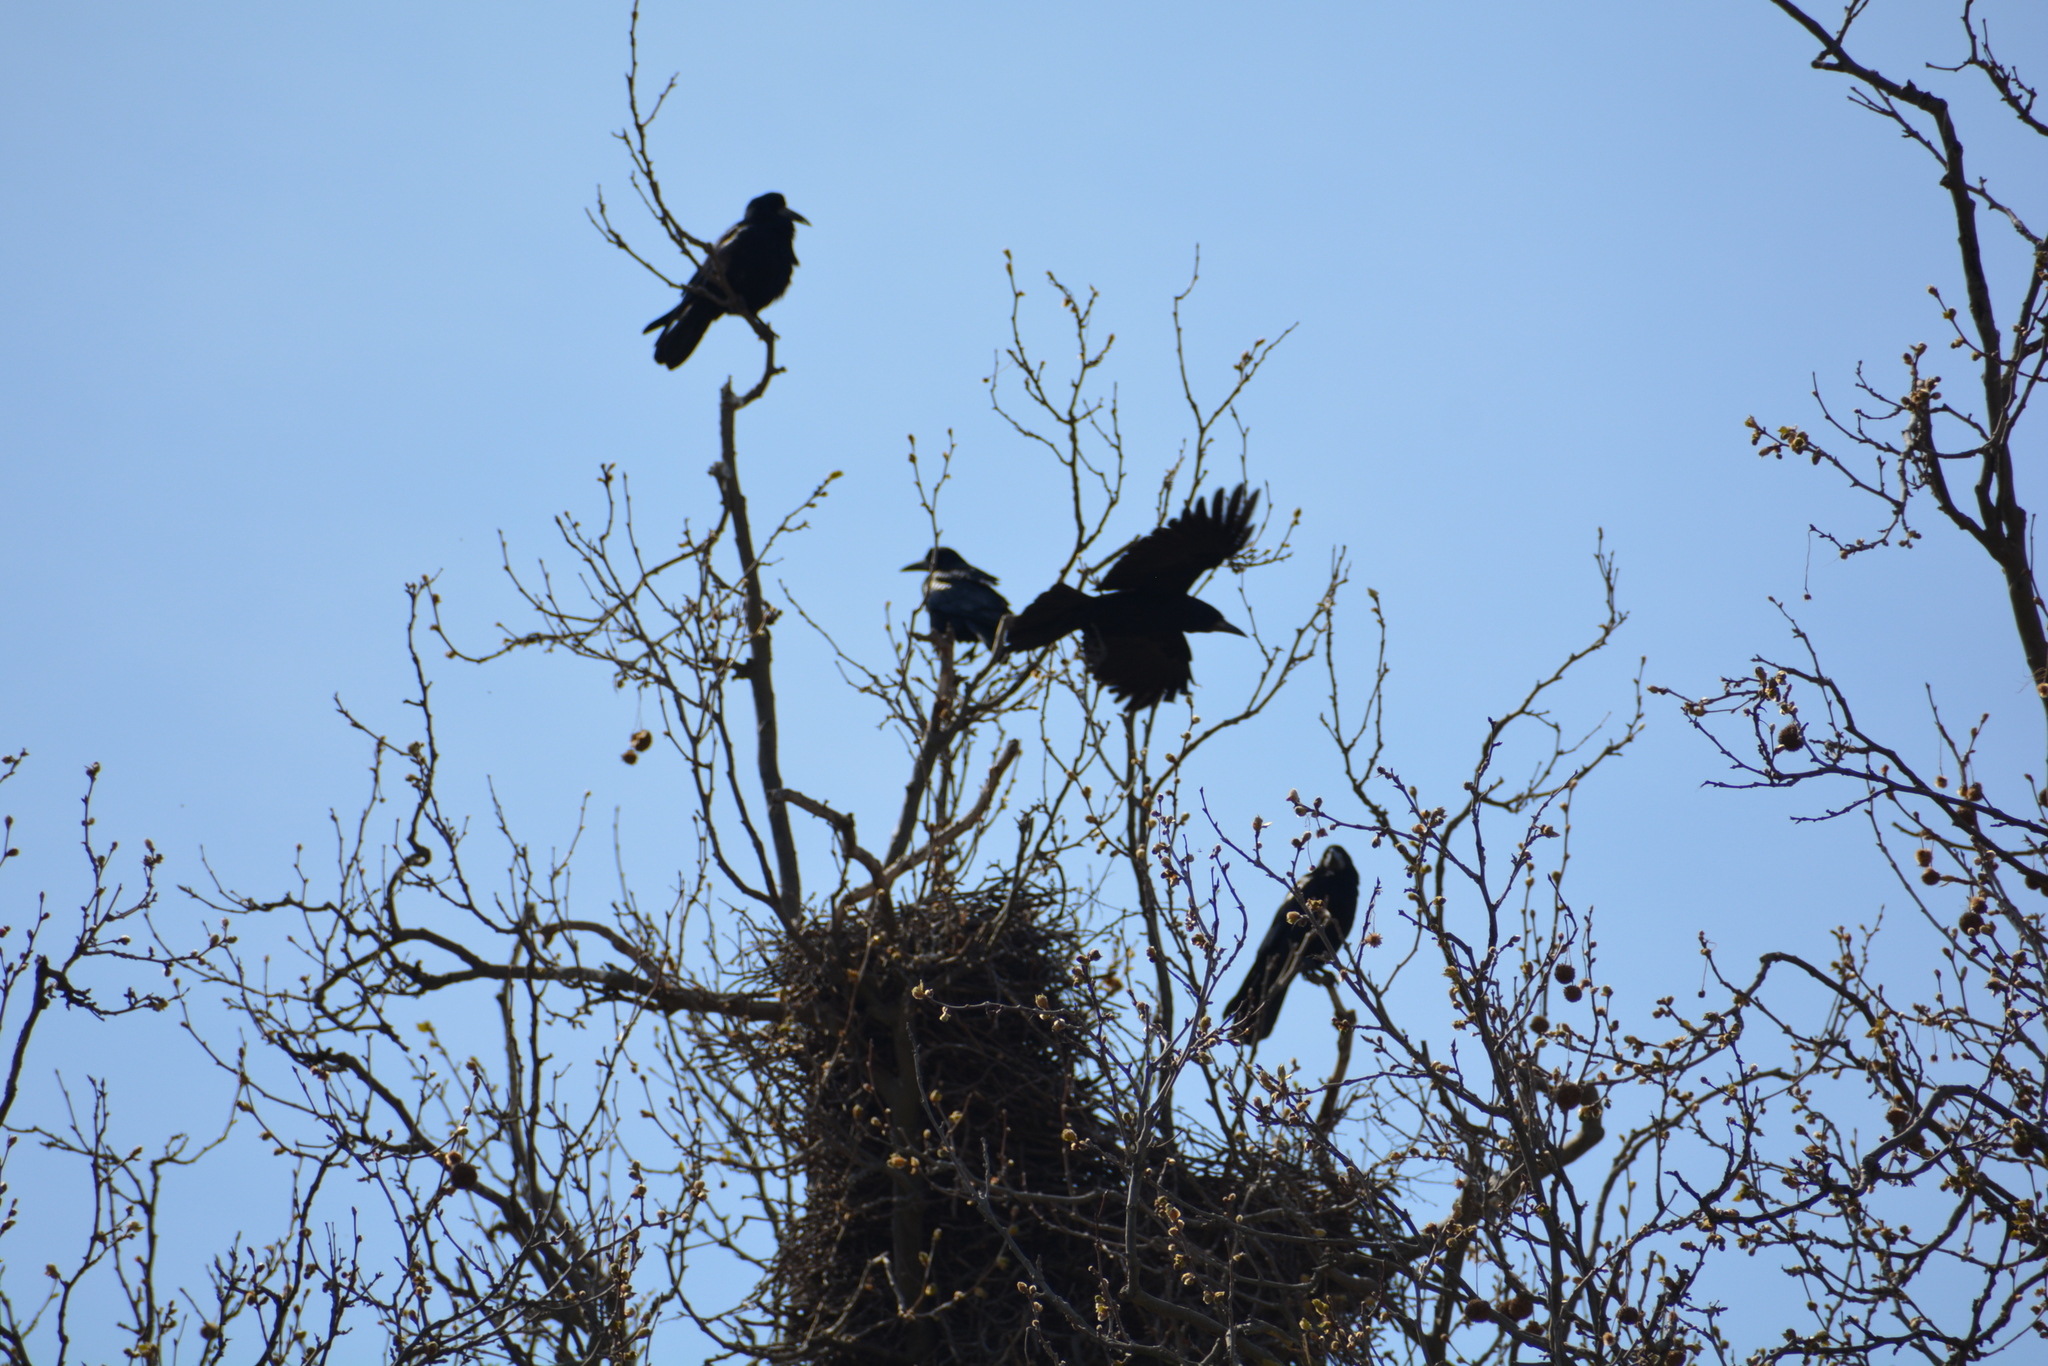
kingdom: Animalia
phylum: Chordata
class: Aves
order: Passeriformes
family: Corvidae
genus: Corvus
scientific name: Corvus frugilegus
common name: Rook
